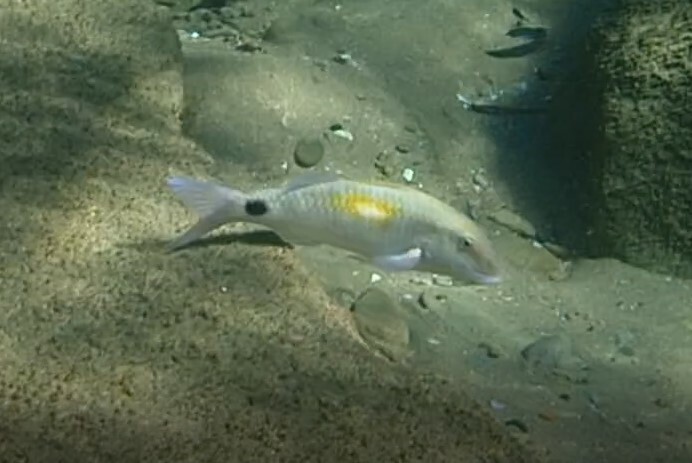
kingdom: Animalia
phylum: Chordata
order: Perciformes
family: Mullidae
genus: Parupeneus
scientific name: Parupeneus indicus
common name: Indian goatfish
